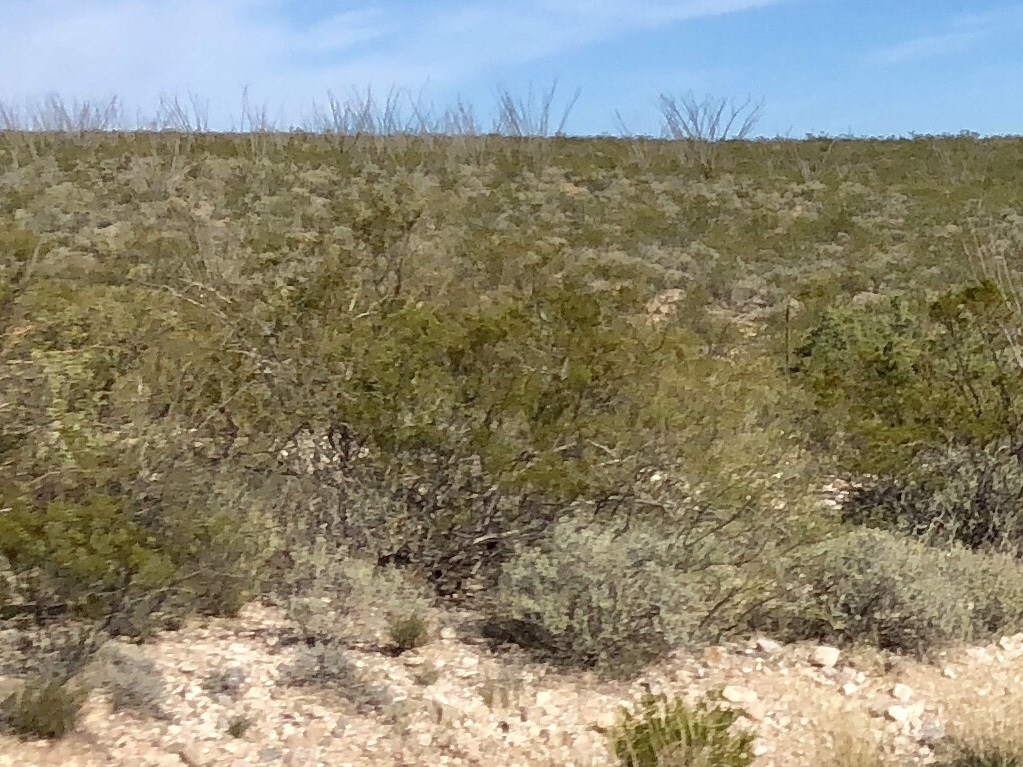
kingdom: Plantae
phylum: Tracheophyta
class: Magnoliopsida
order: Zygophyllales
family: Zygophyllaceae
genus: Larrea
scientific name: Larrea tridentata
